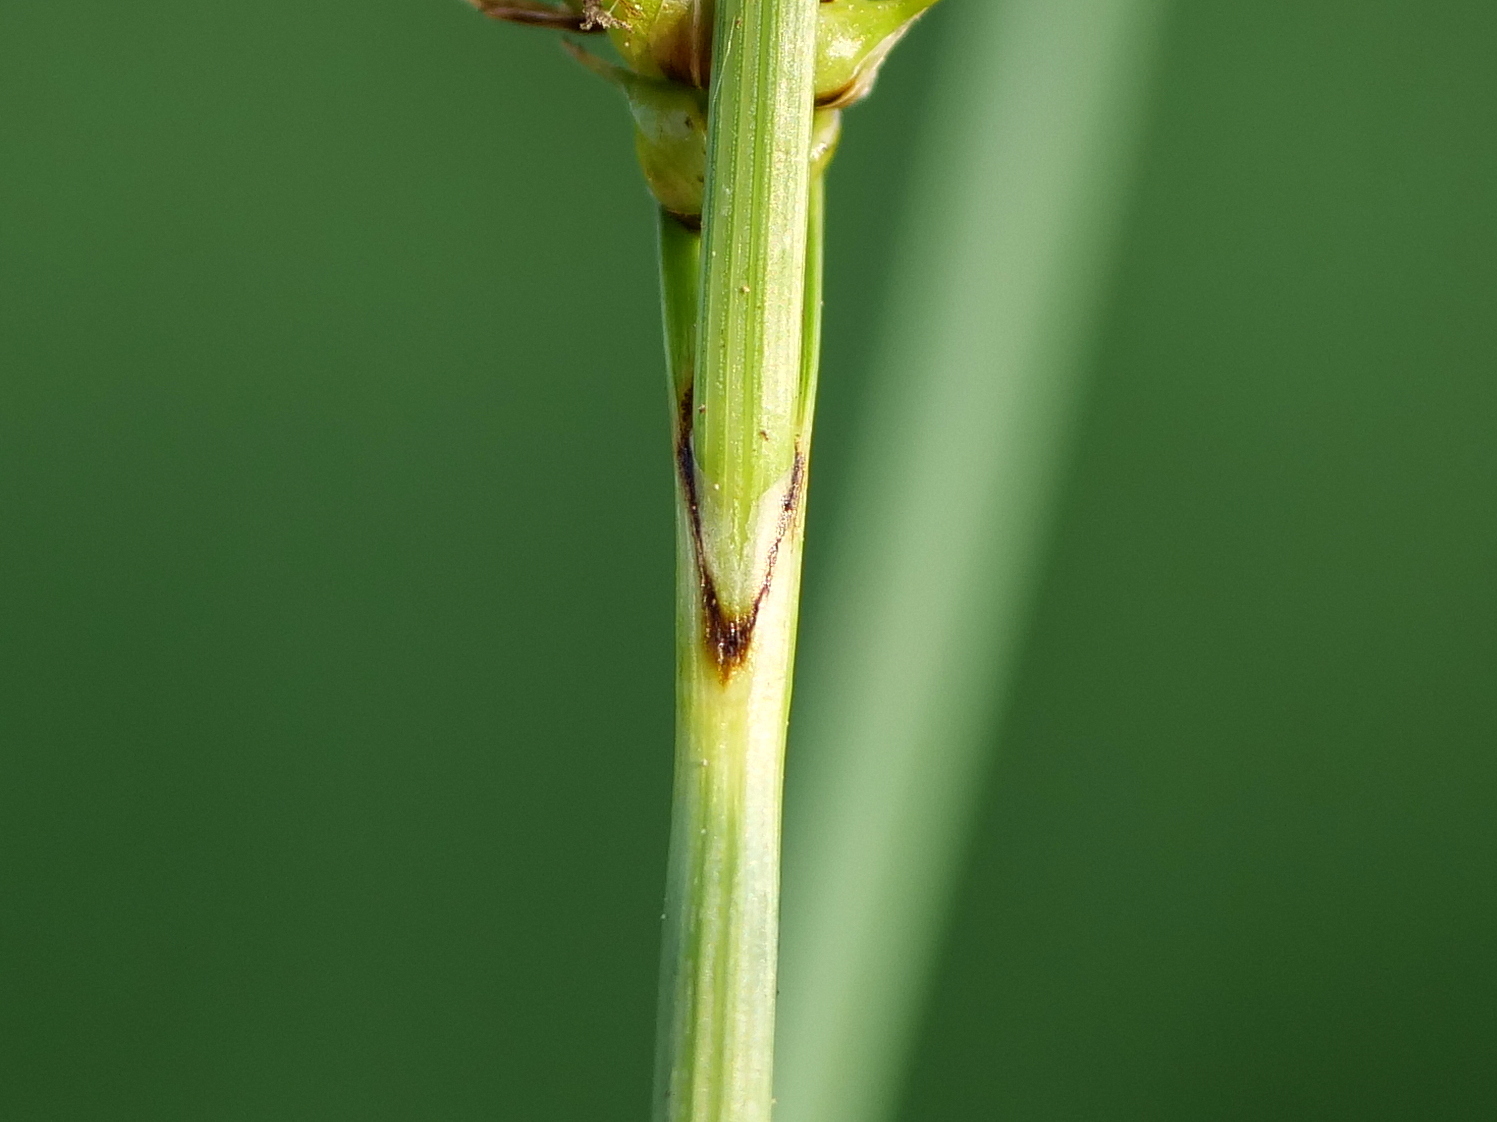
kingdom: Plantae
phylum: Tracheophyta
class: Liliopsida
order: Poales
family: Cyperaceae
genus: Carex
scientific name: Carex rostrata
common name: Bottle sedge
